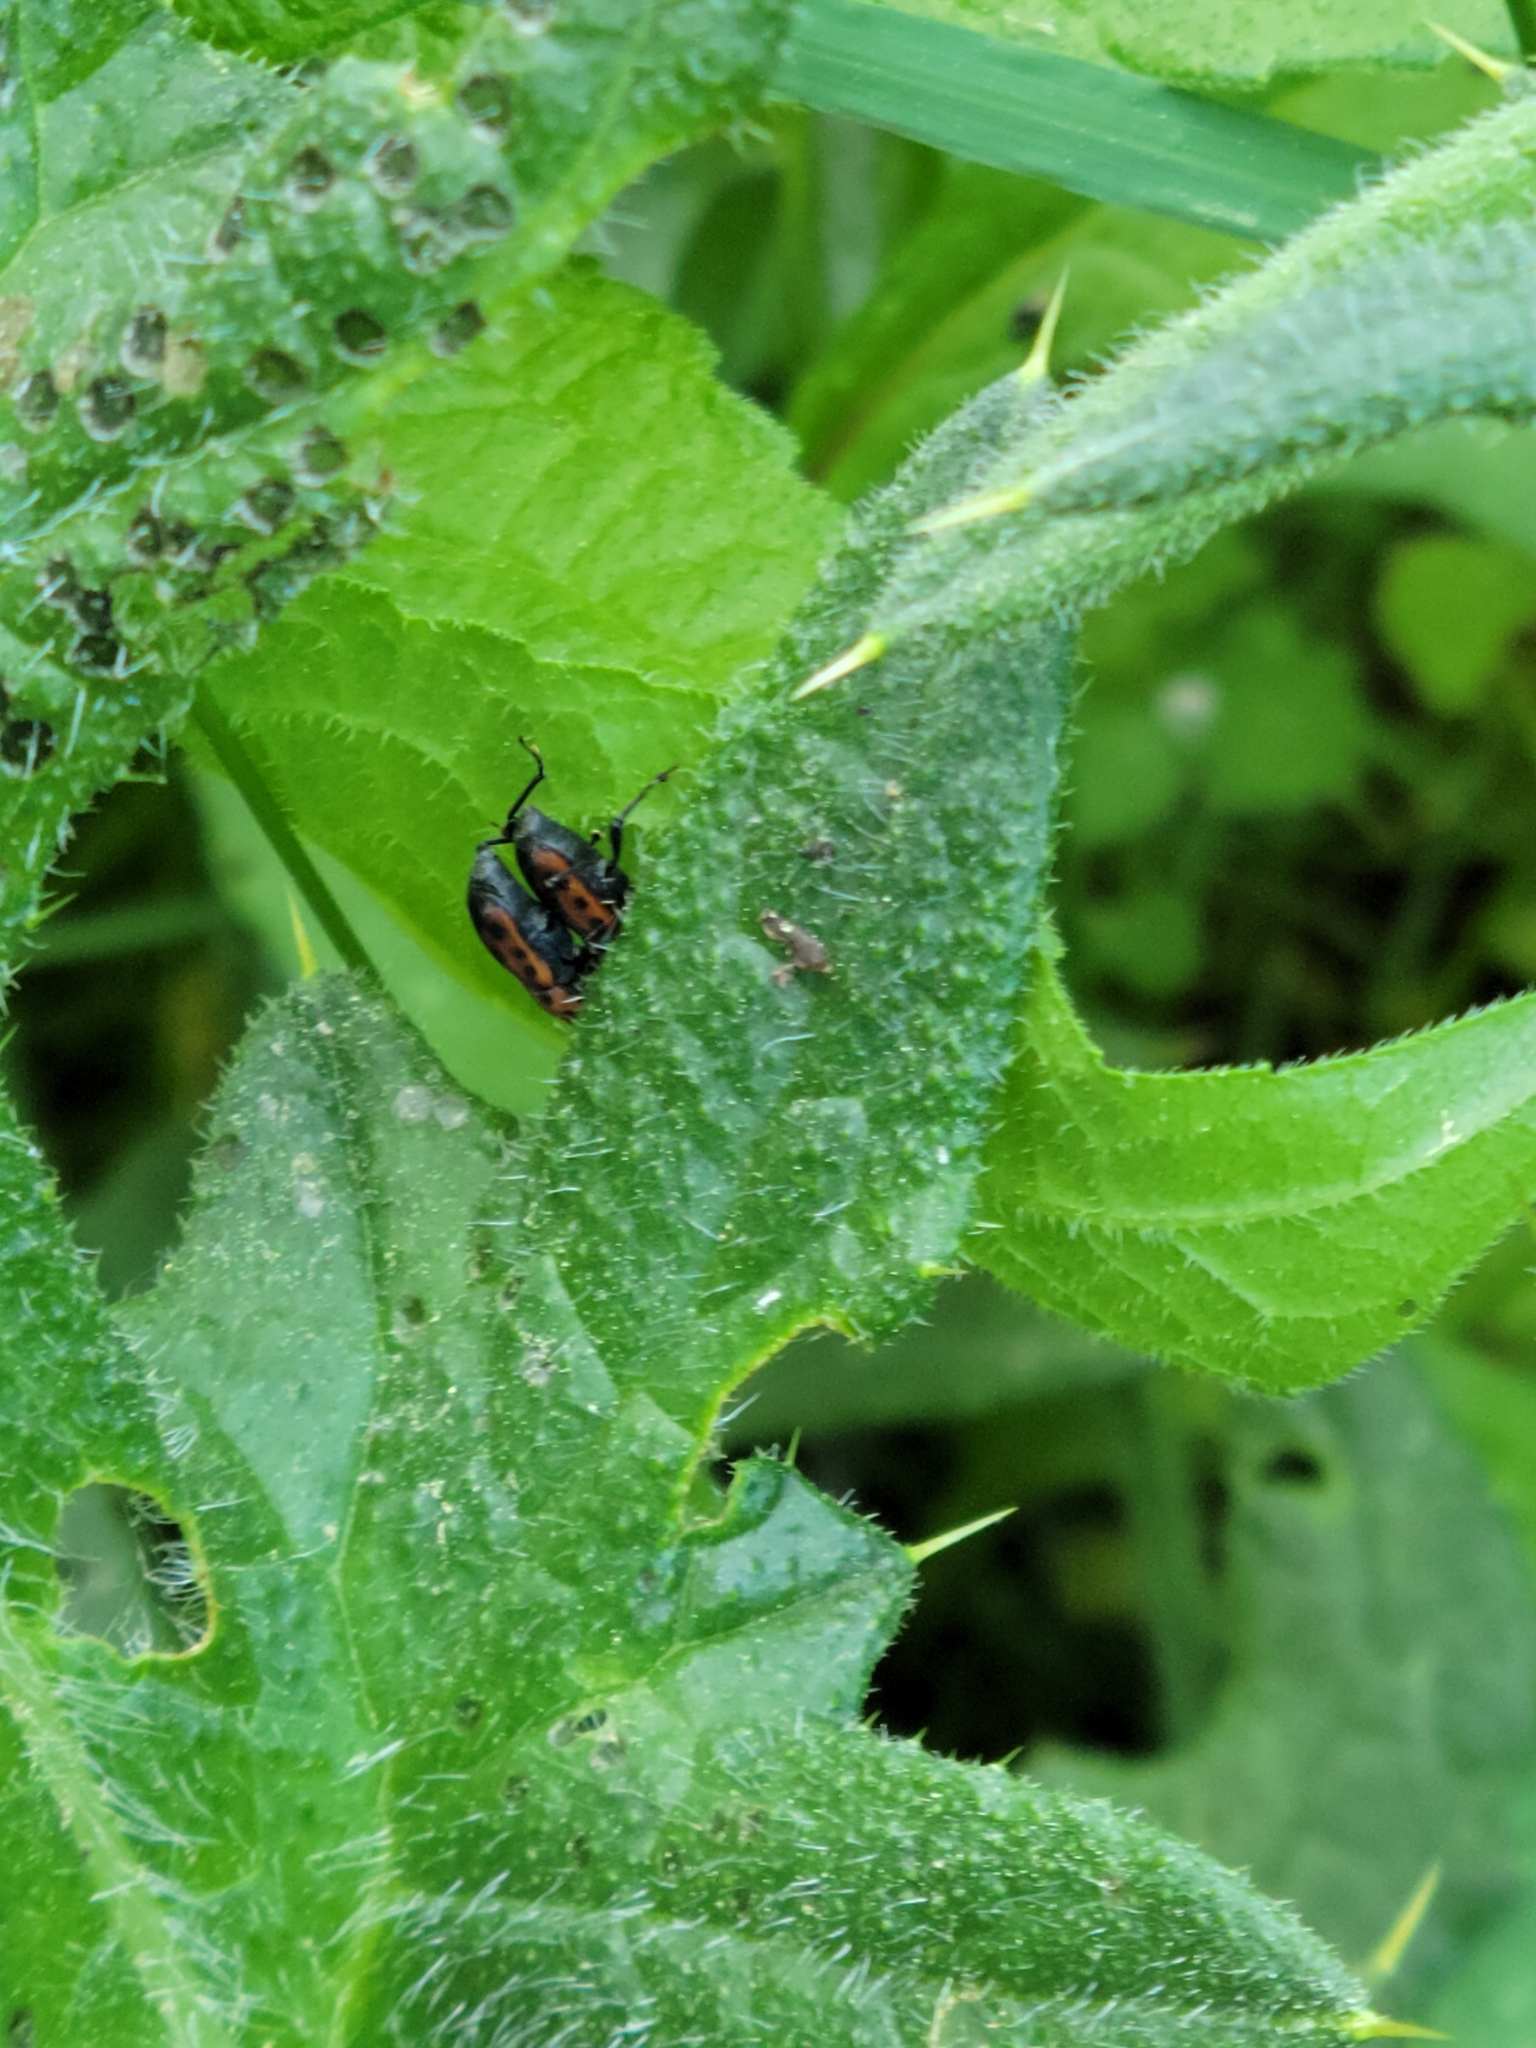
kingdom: Animalia
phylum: Arthropoda
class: Insecta
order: Coleoptera
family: Dryophthoridae
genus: Rhodobaenus
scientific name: Rhodobaenus quinquepunctatus
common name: Cocklebur weevil
